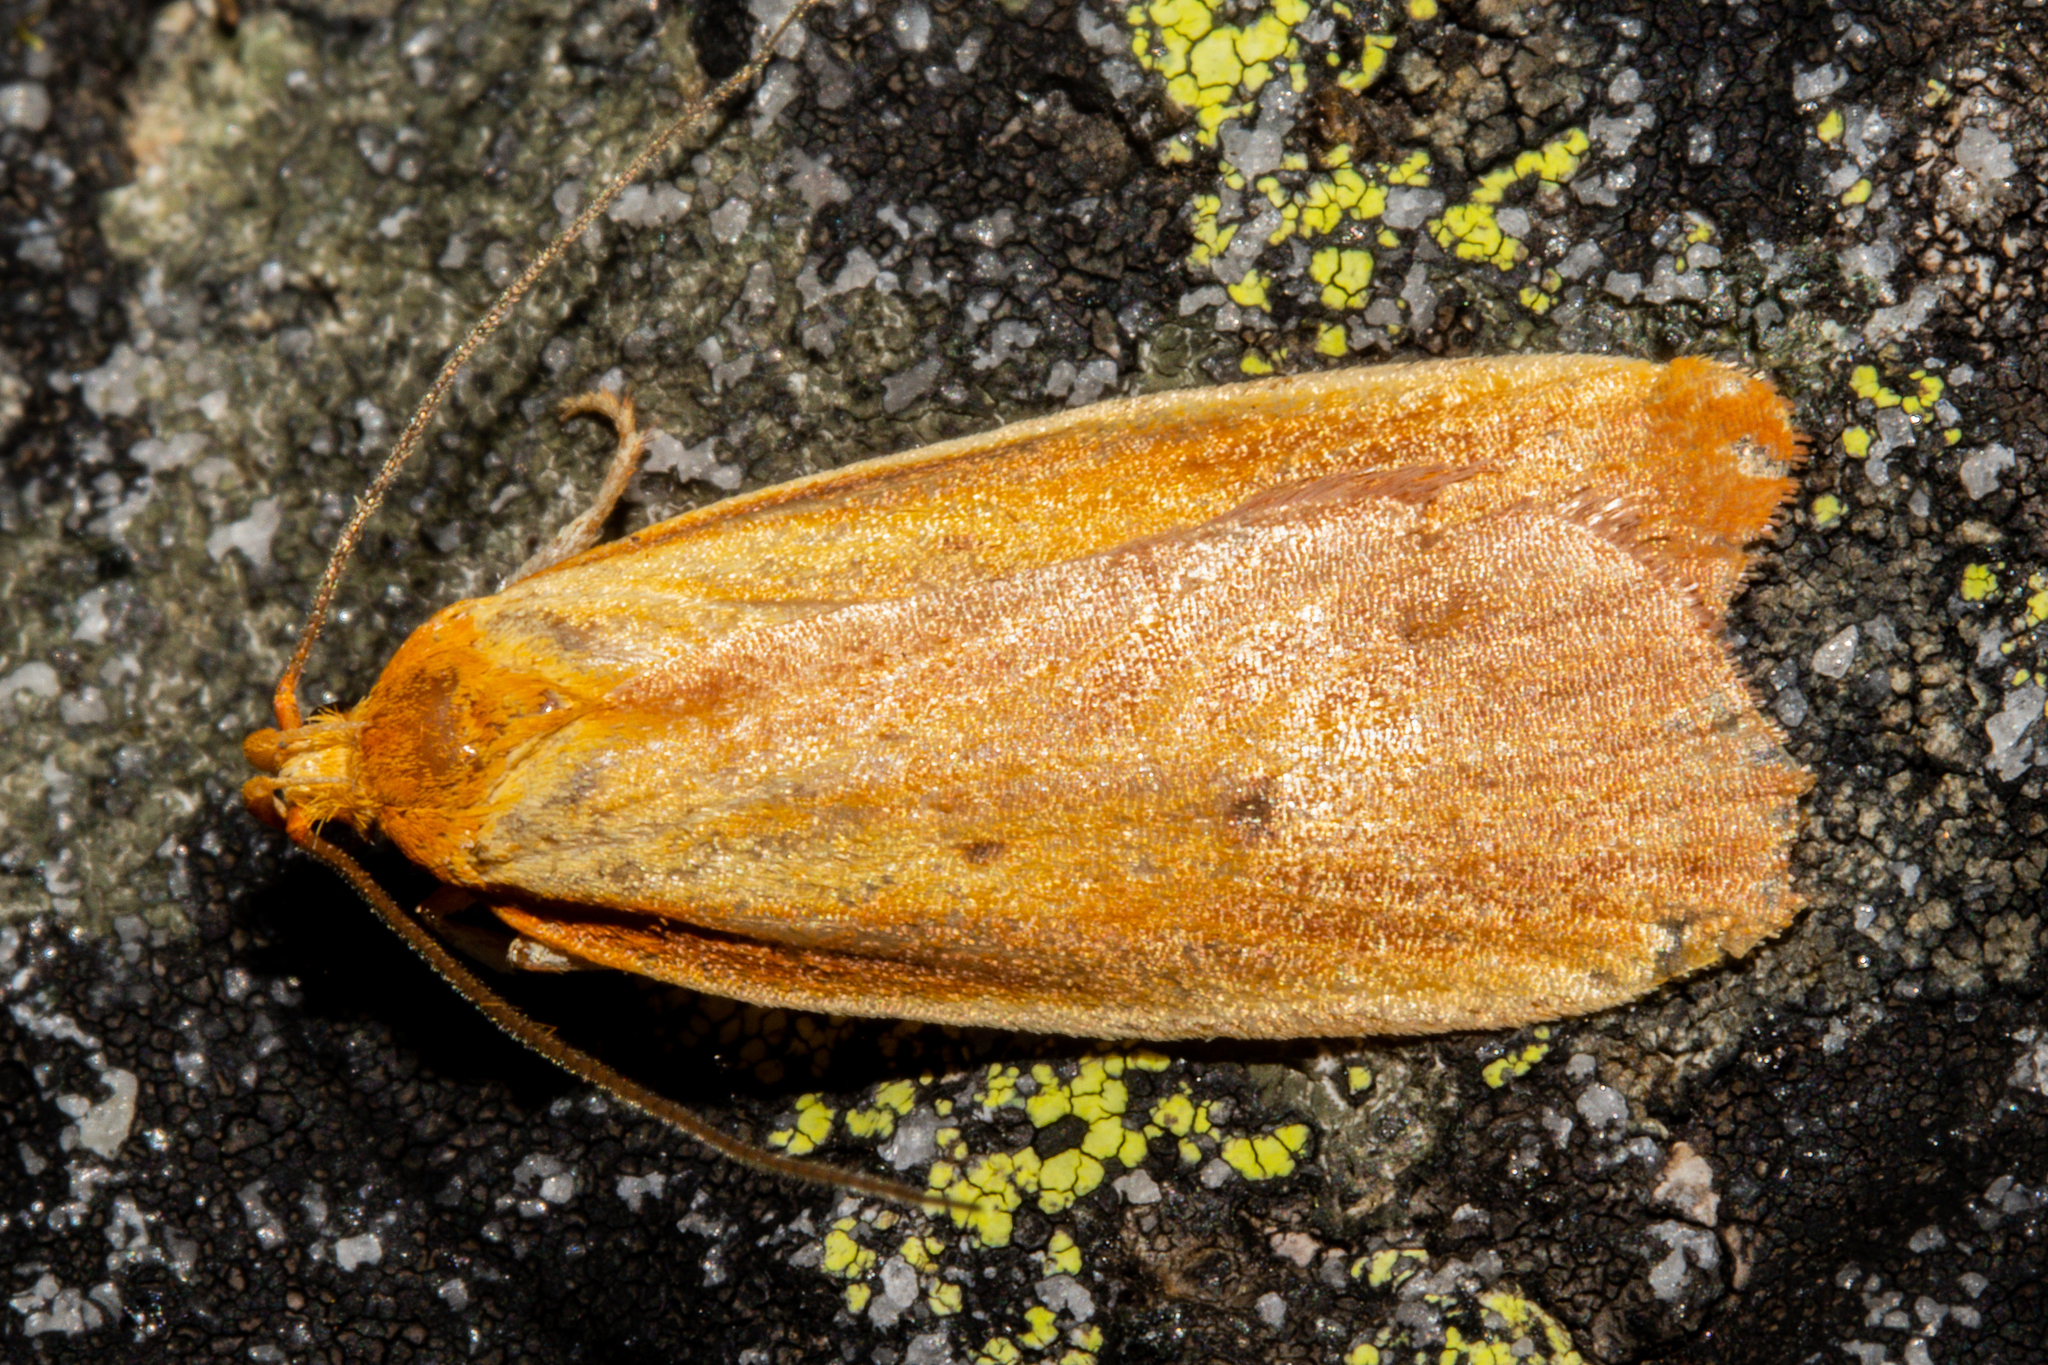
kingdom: Animalia
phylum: Arthropoda
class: Insecta
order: Lepidoptera
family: Oecophoridae
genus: Proteodes
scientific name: Proteodes smithi
